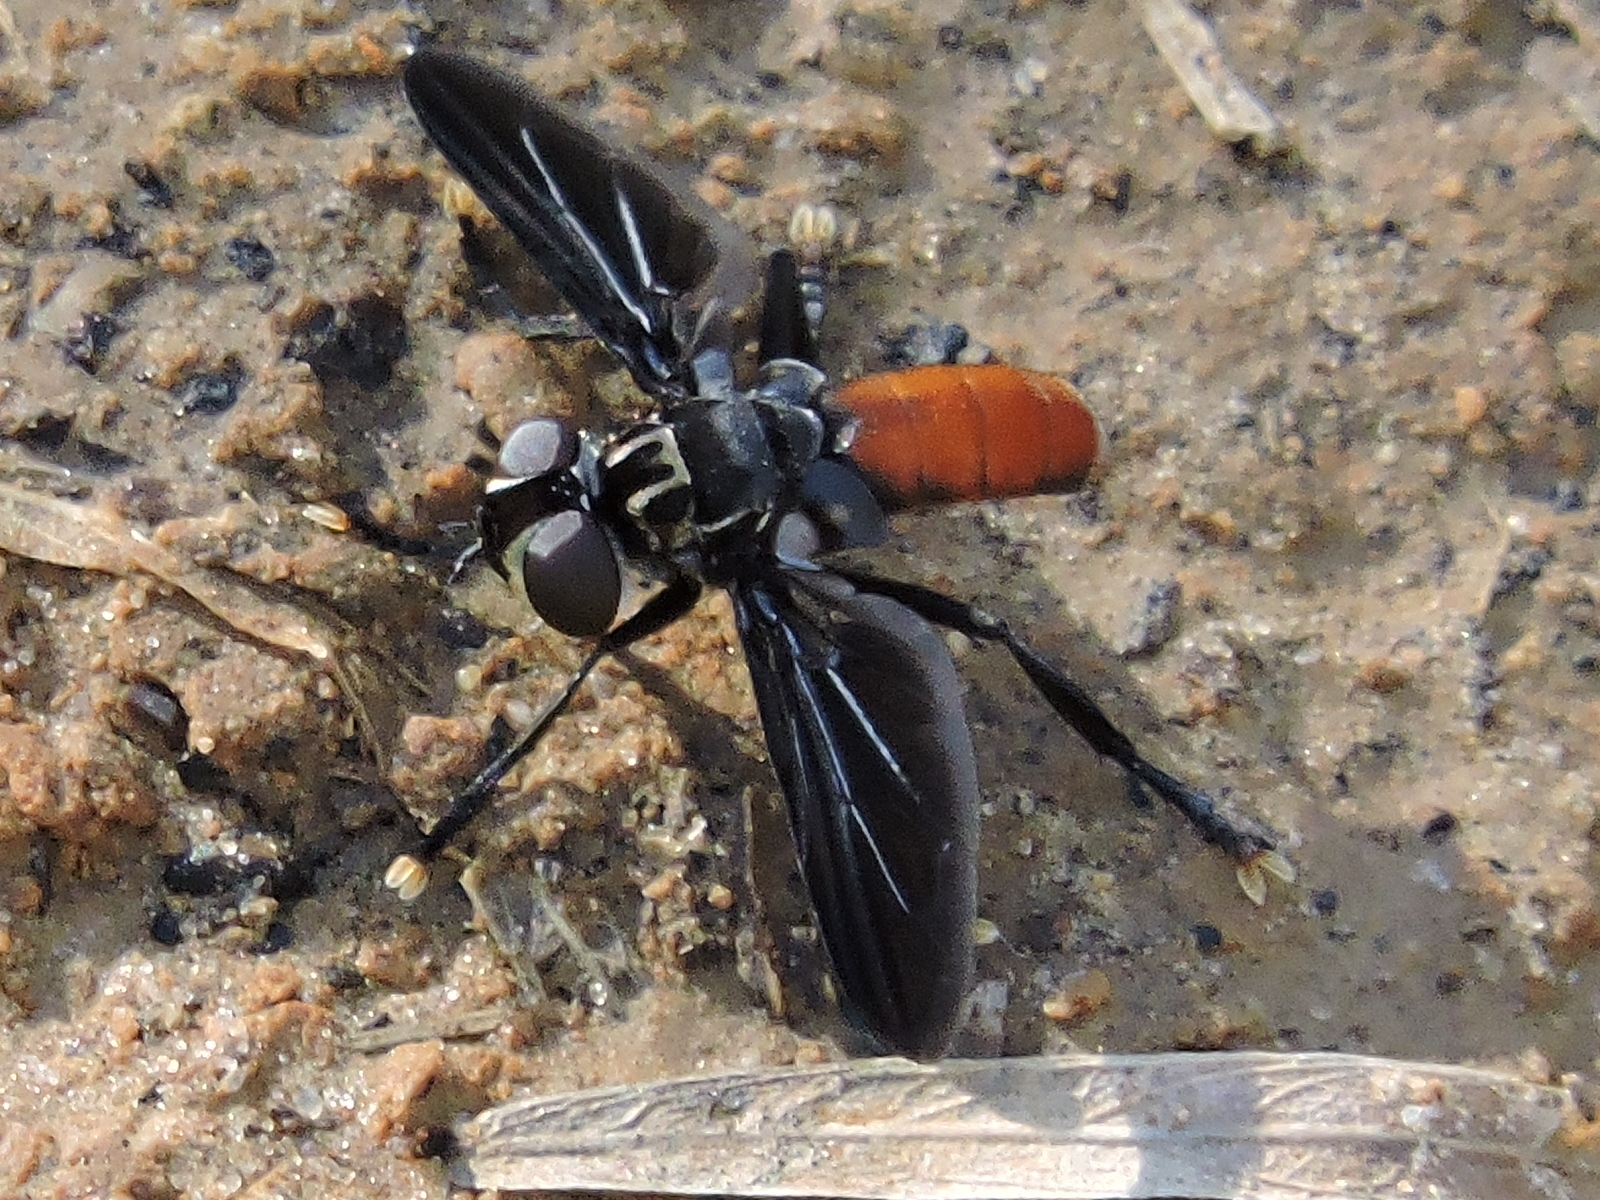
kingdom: Animalia
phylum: Arthropoda
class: Insecta
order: Diptera
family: Tachinidae
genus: Trichopoda
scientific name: Trichopoda pennipes
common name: Tachinid fly
